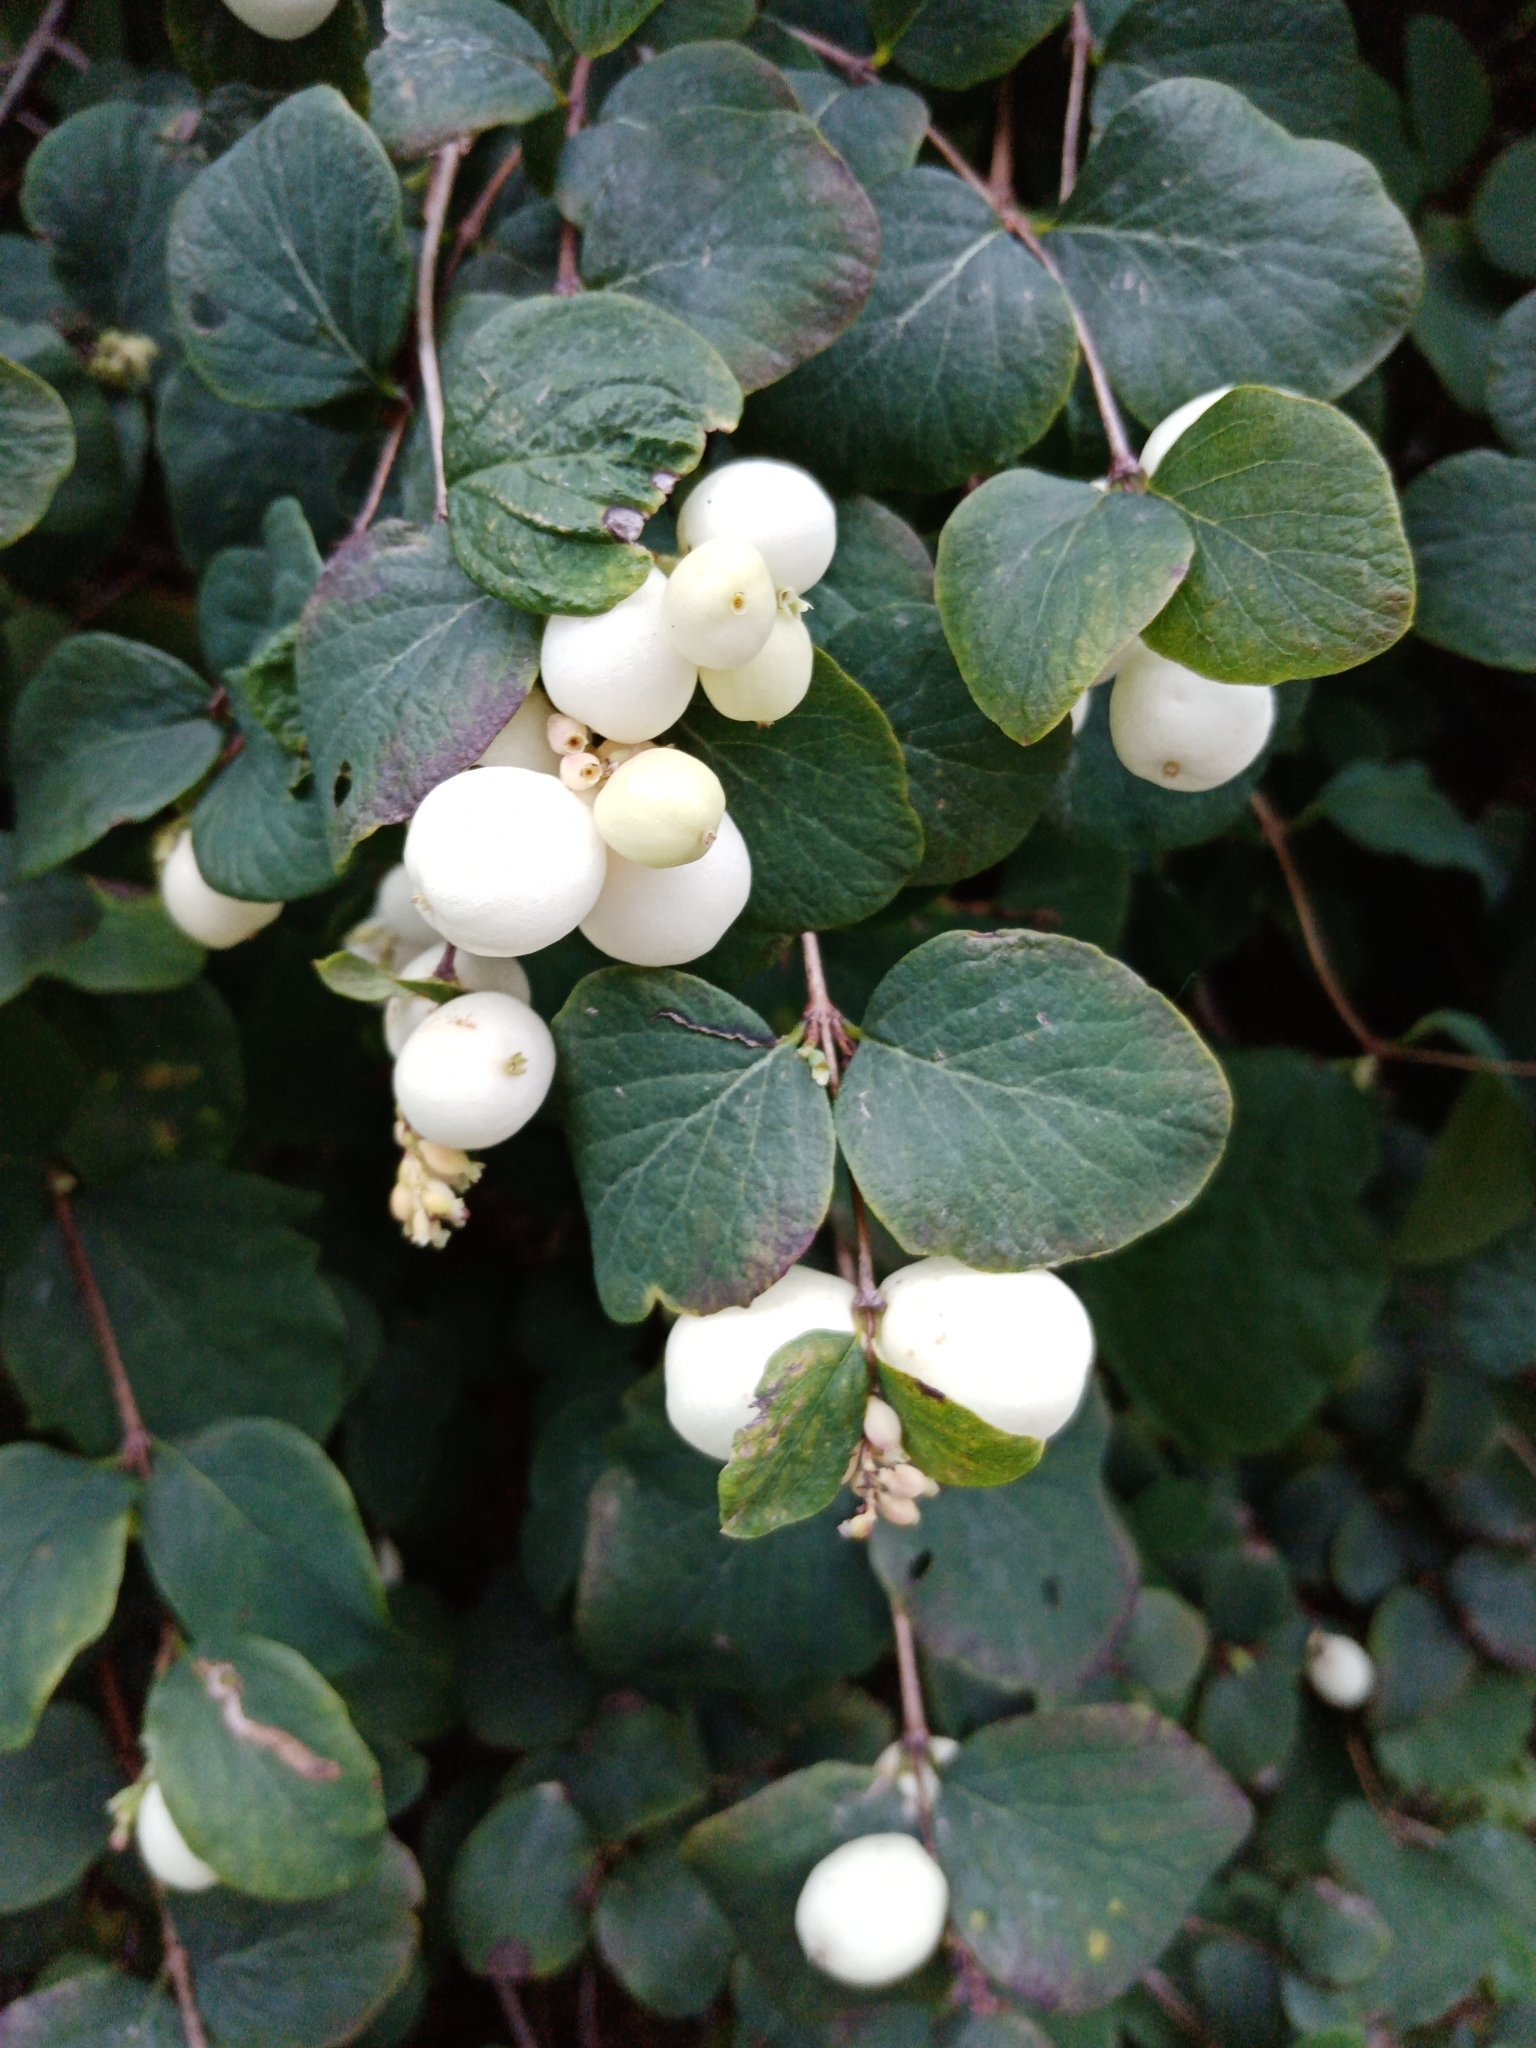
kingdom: Plantae
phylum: Tracheophyta
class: Magnoliopsida
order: Dipsacales
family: Caprifoliaceae
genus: Symphoricarpos
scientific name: Symphoricarpos albus
